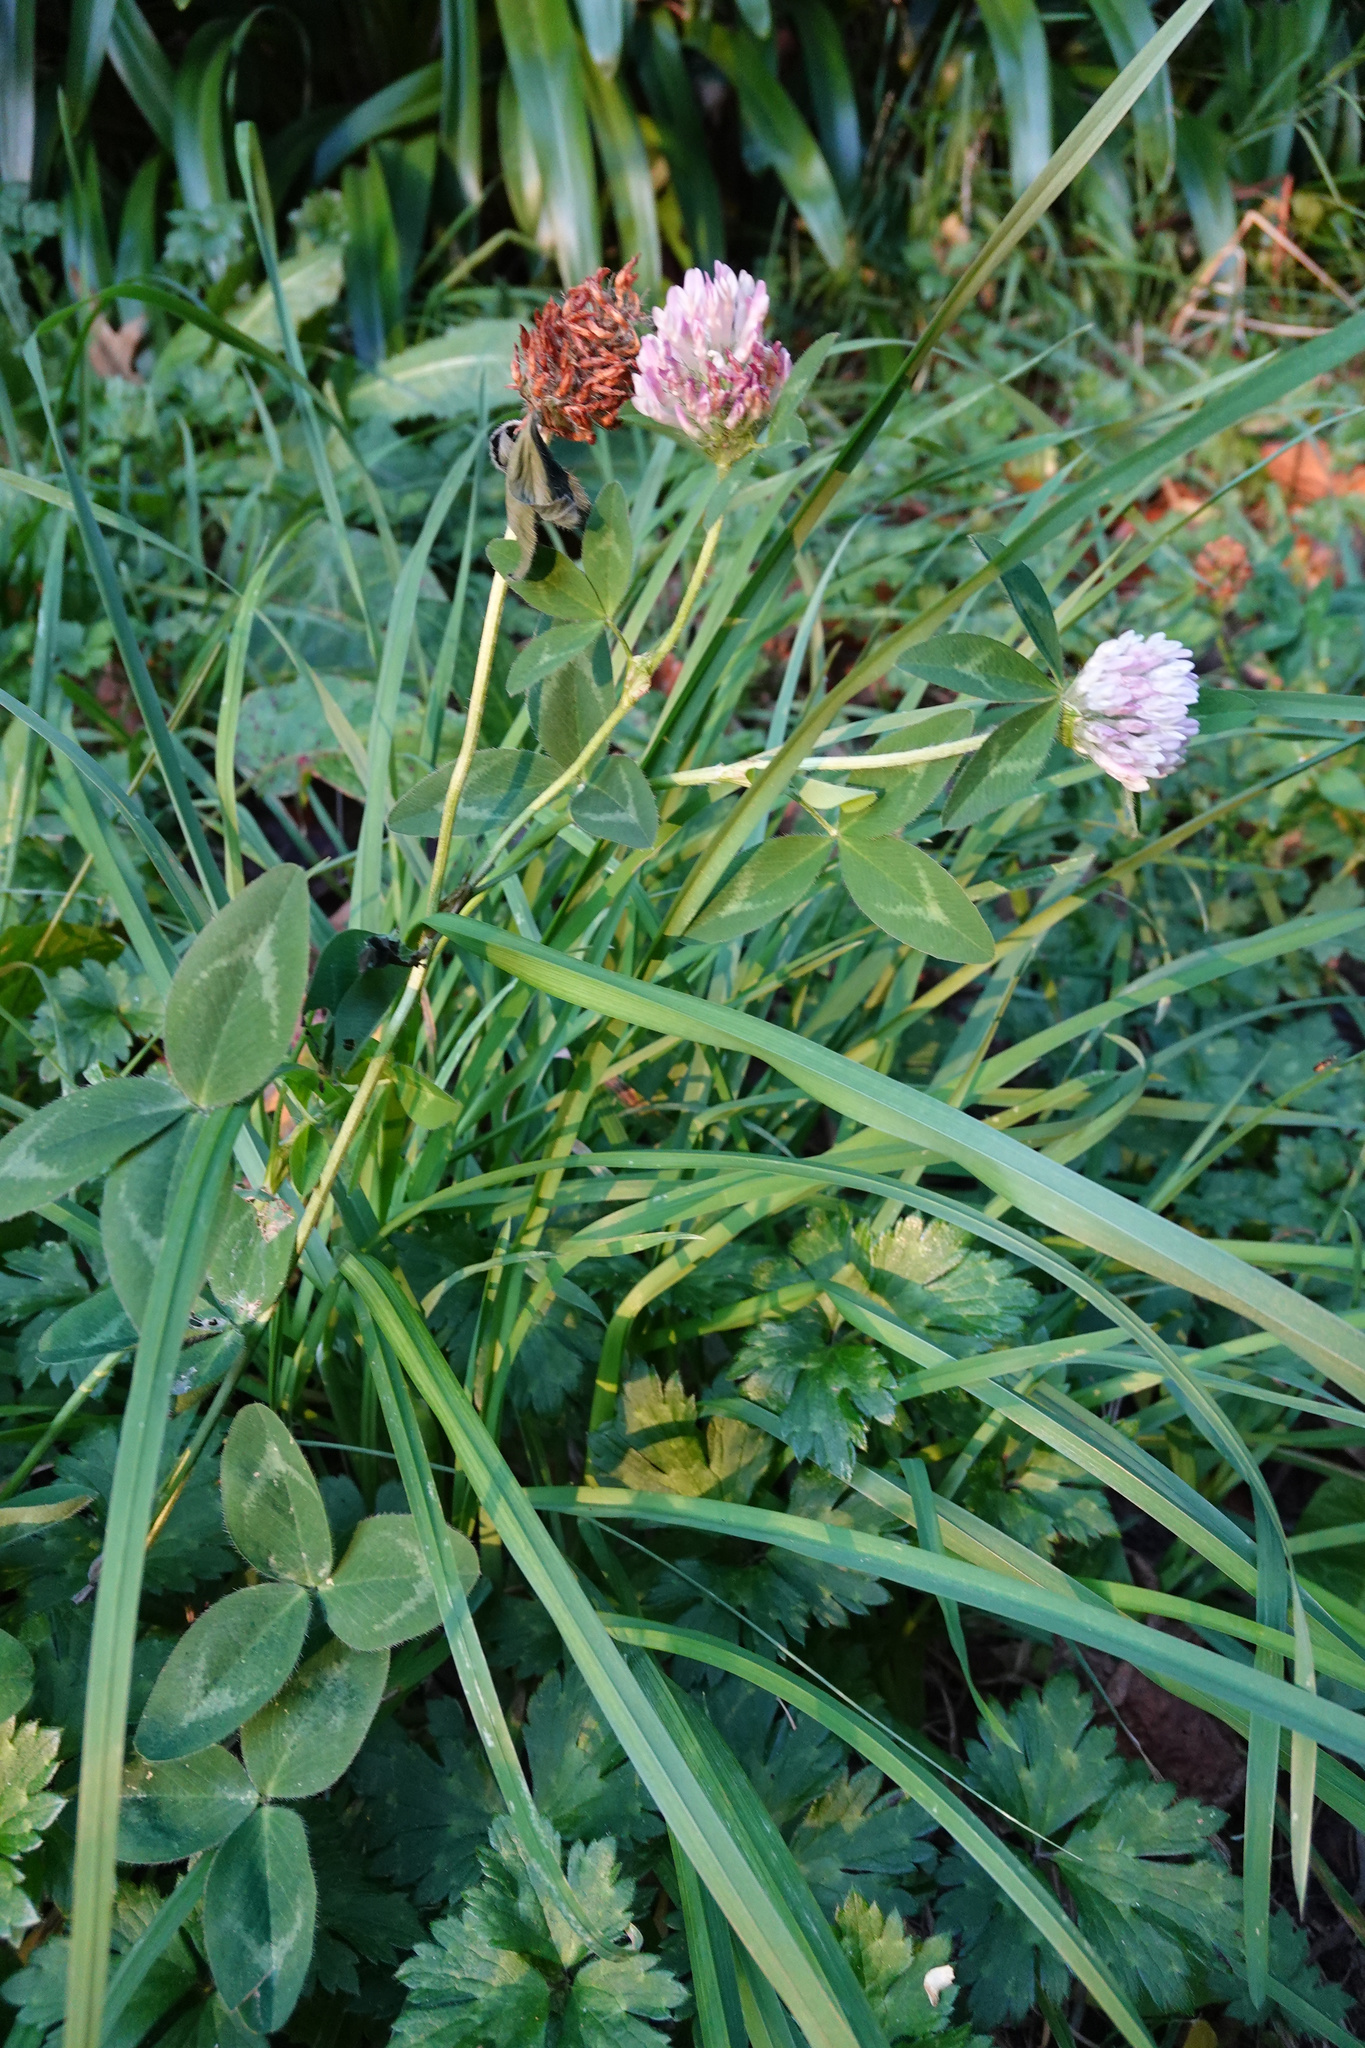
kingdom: Plantae
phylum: Tracheophyta
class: Magnoliopsida
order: Fabales
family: Fabaceae
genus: Trifolium
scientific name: Trifolium pratense
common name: Red clover
